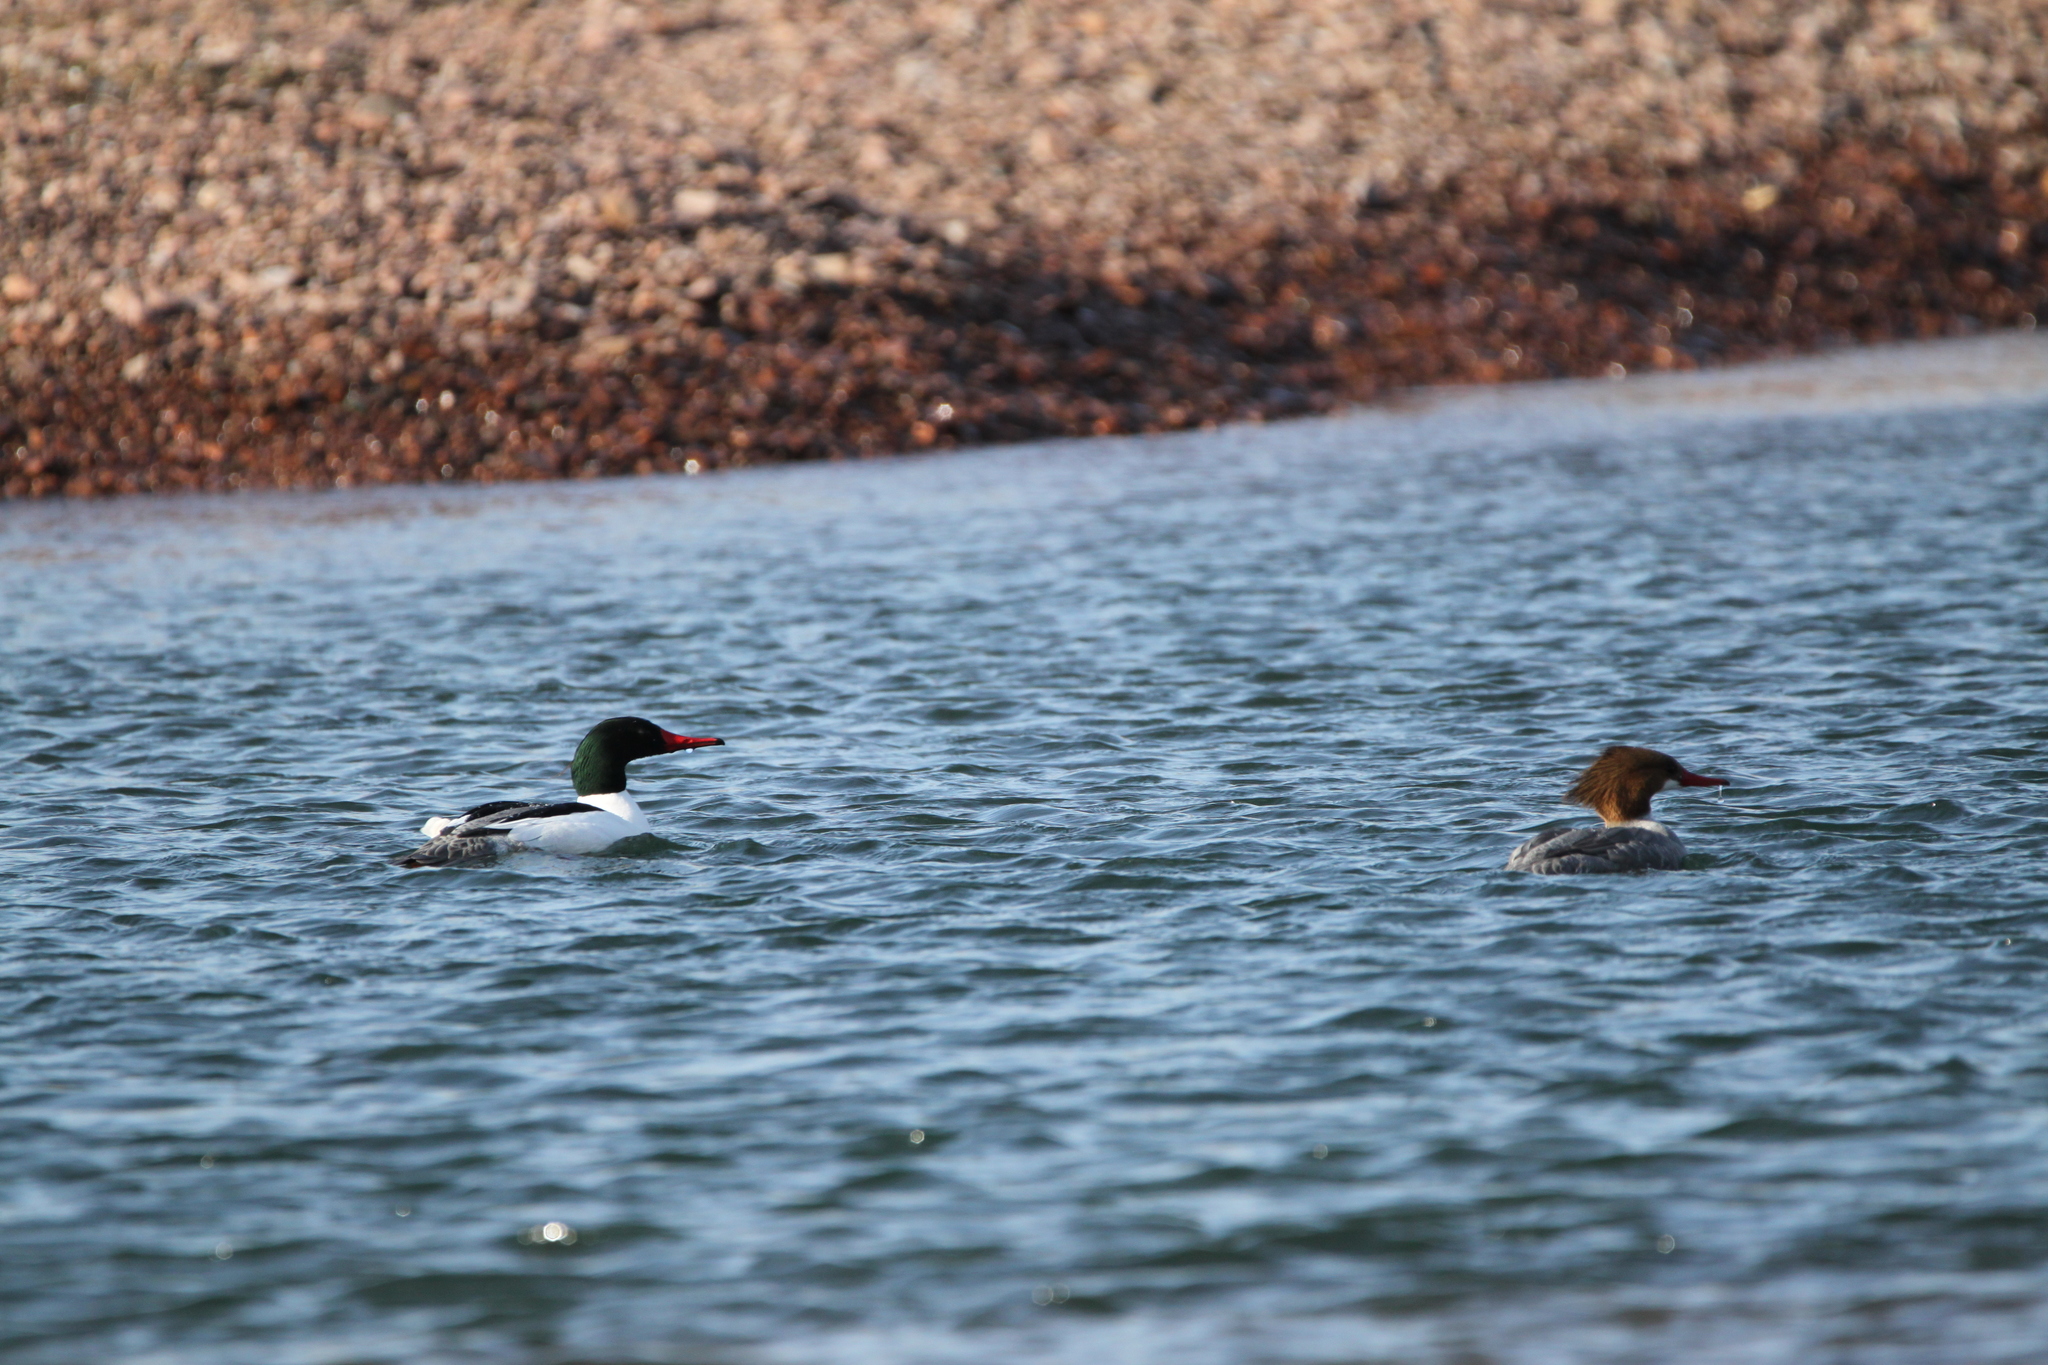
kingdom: Animalia
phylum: Chordata
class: Aves
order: Anseriformes
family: Anatidae
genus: Mergus
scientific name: Mergus merganser
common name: Common merganser
